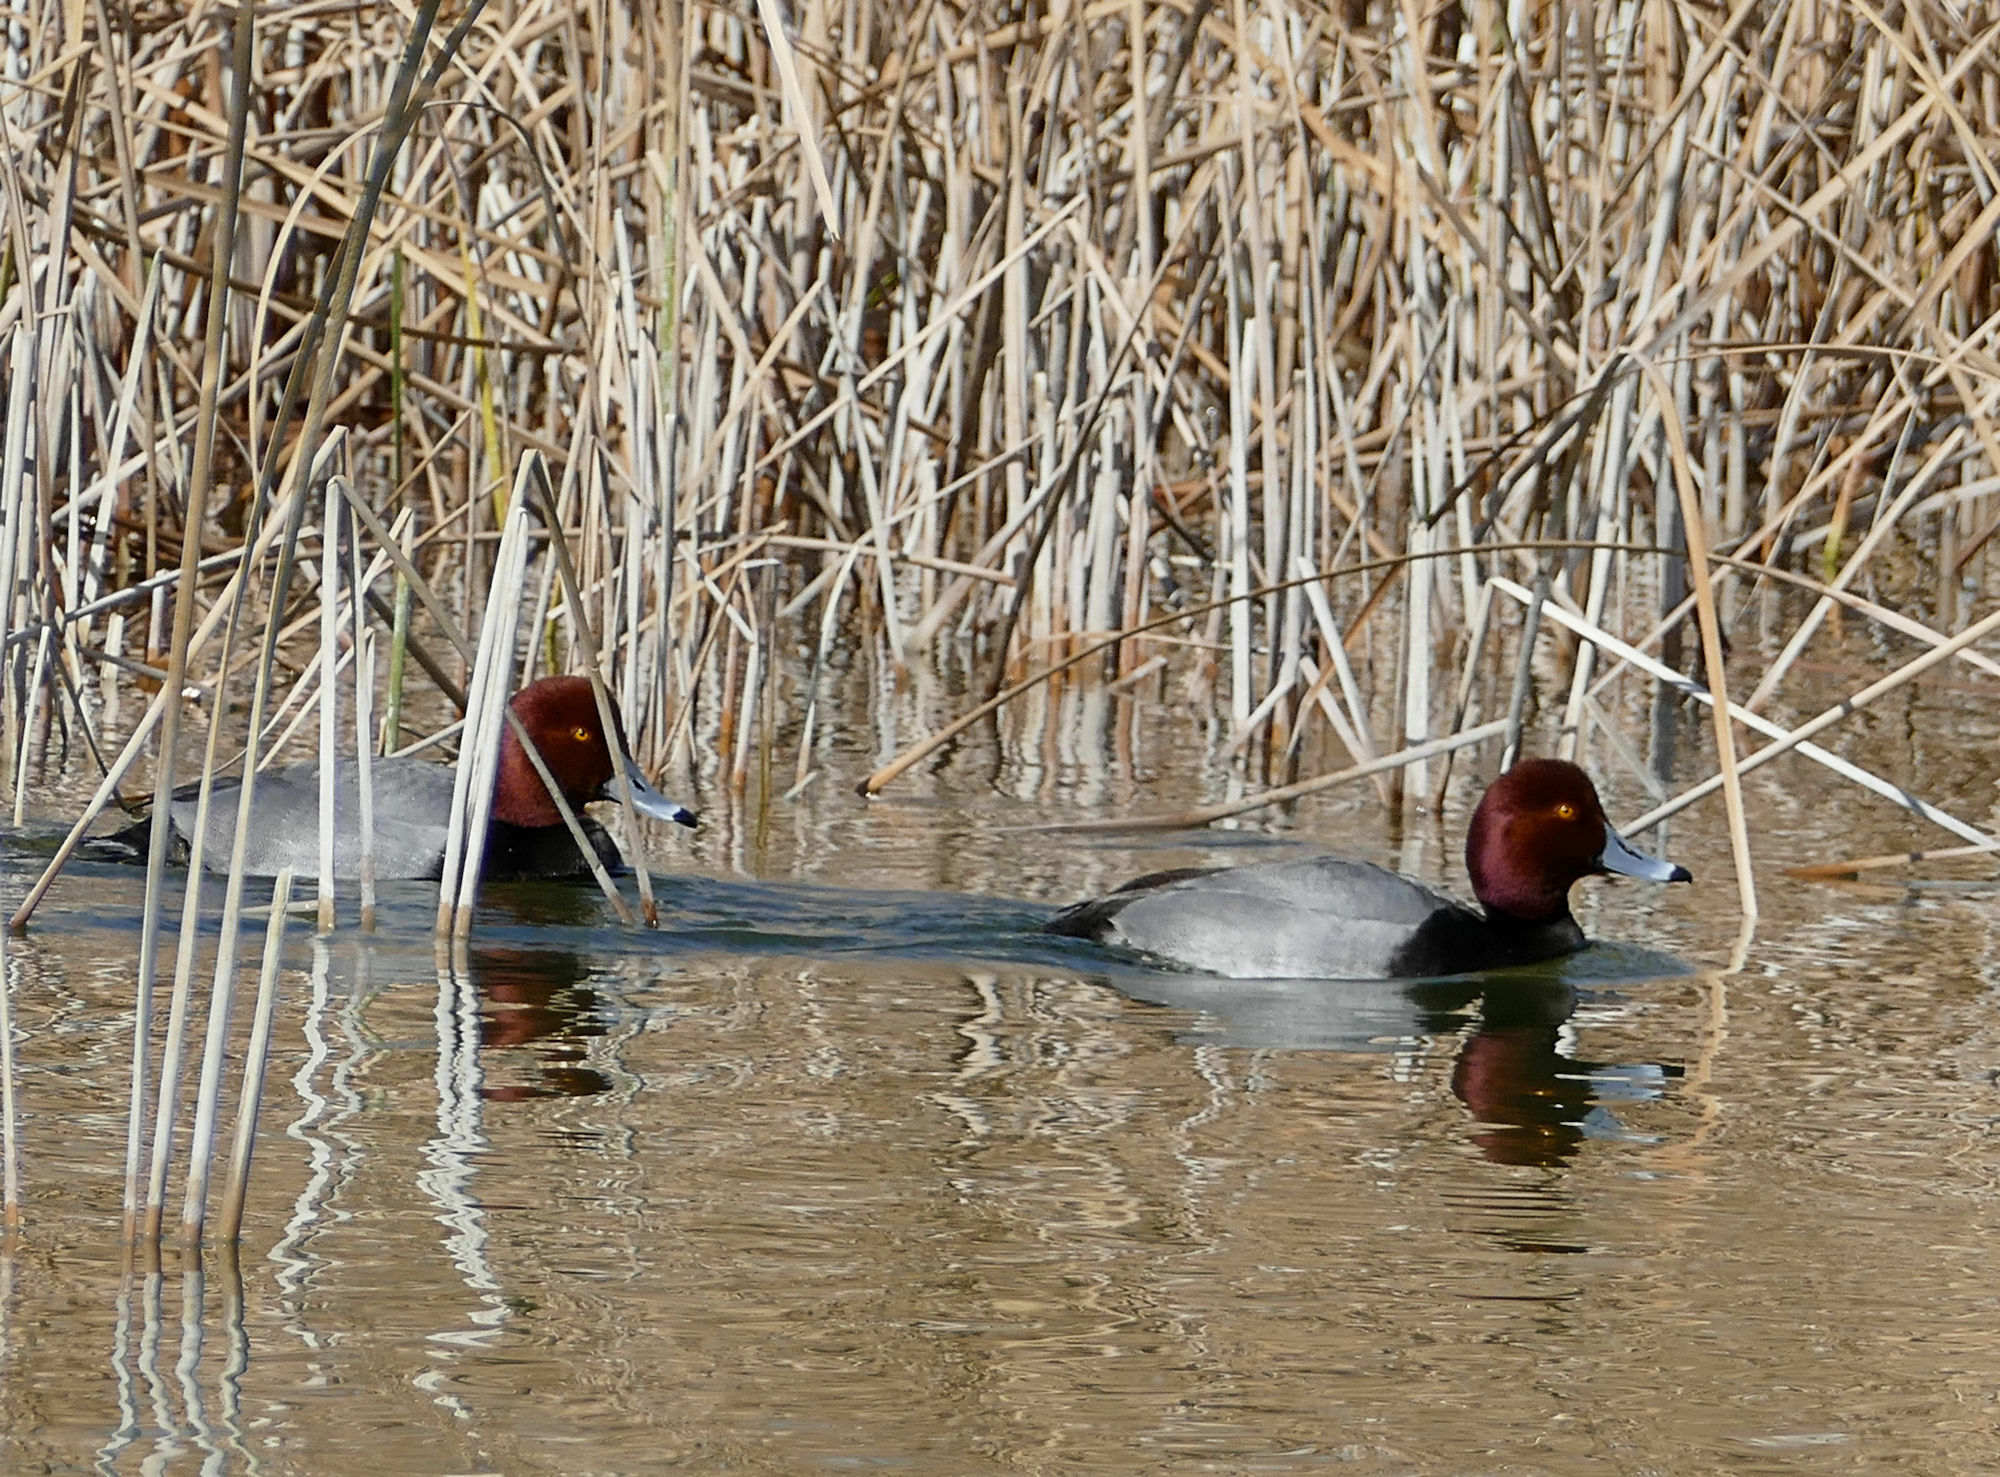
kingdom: Animalia
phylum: Chordata
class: Aves
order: Anseriformes
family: Anatidae
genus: Aythya
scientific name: Aythya americana
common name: Redhead
